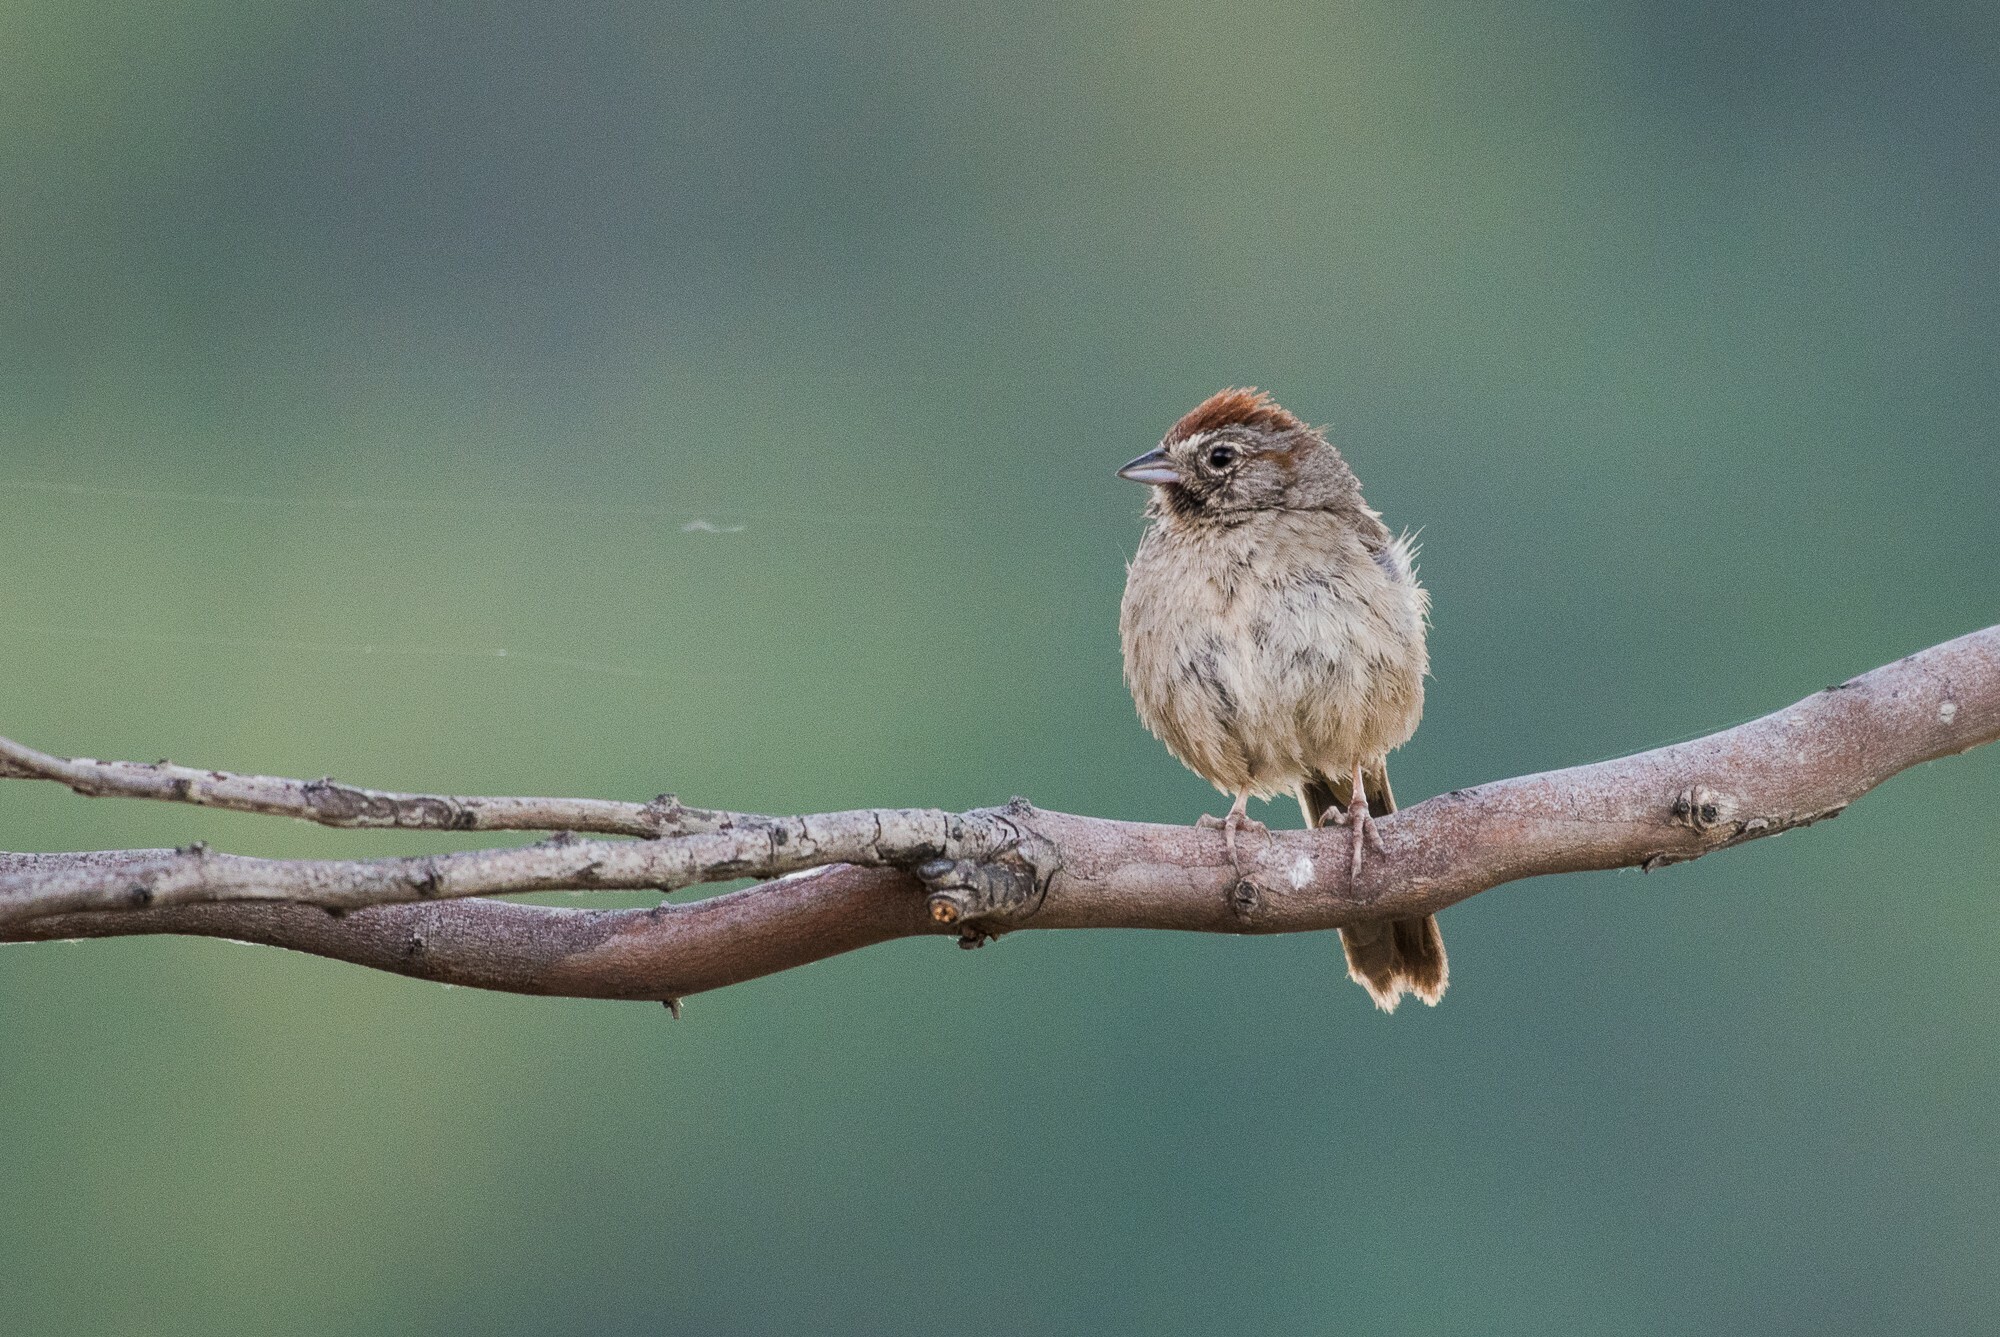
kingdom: Animalia
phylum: Chordata
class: Aves
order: Passeriformes
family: Passerellidae
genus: Aimophila
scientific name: Aimophila ruficeps
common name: Rufous-crowned sparrow
